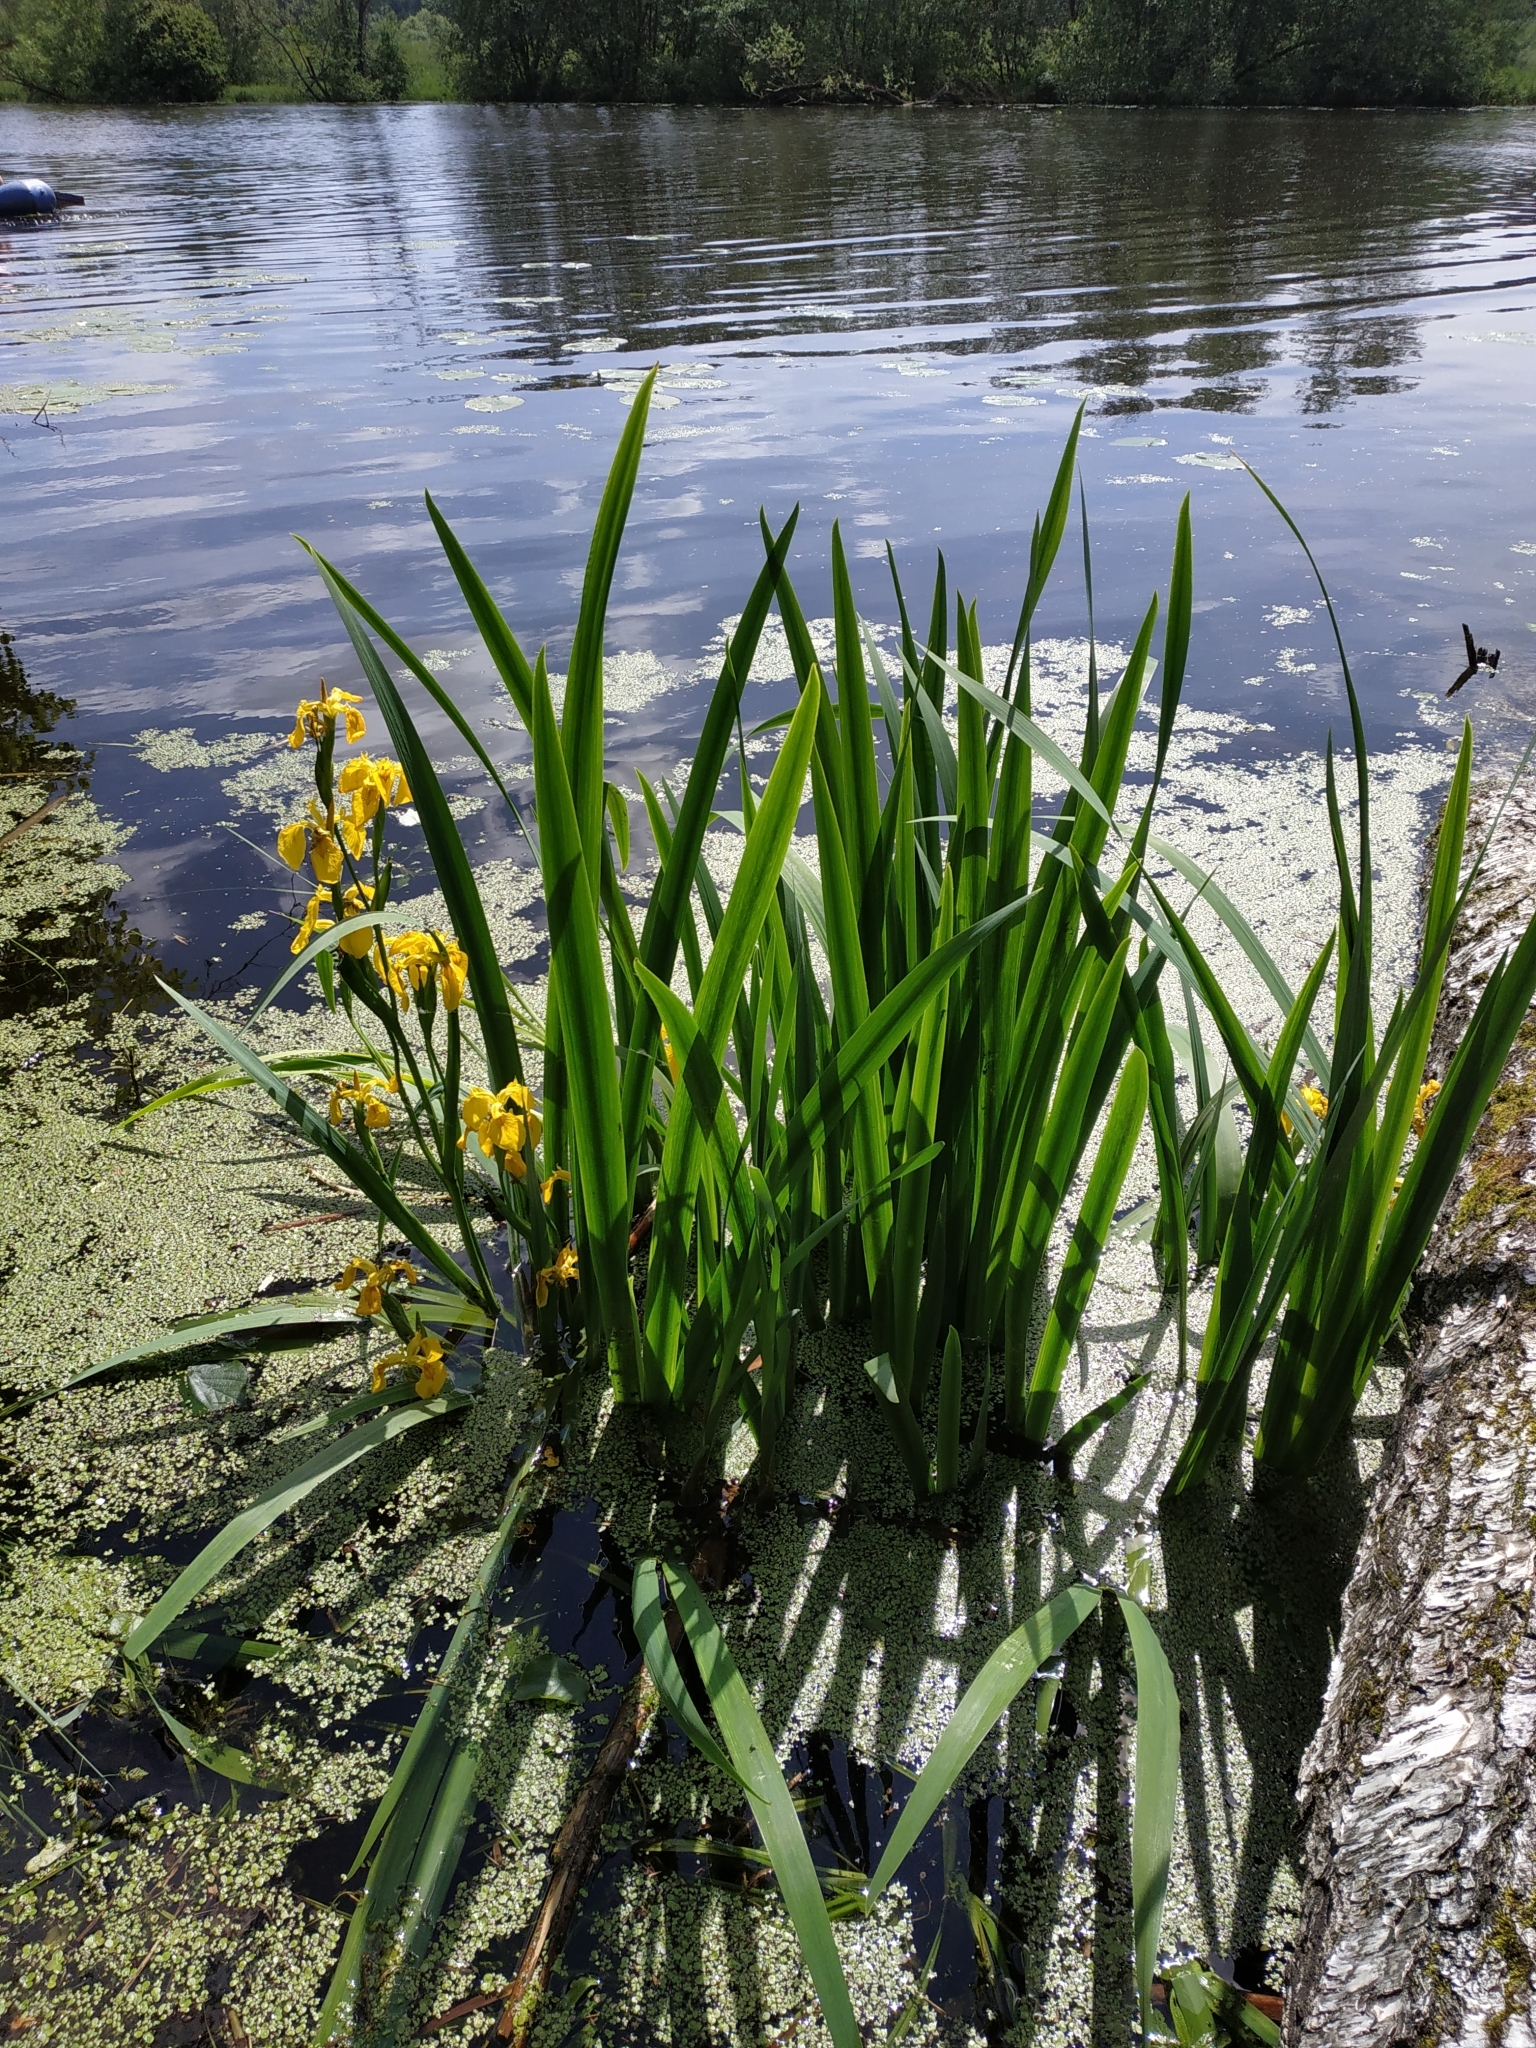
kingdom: Plantae
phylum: Tracheophyta
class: Liliopsida
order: Asparagales
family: Iridaceae
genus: Iris
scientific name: Iris pseudacorus
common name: Yellow flag
